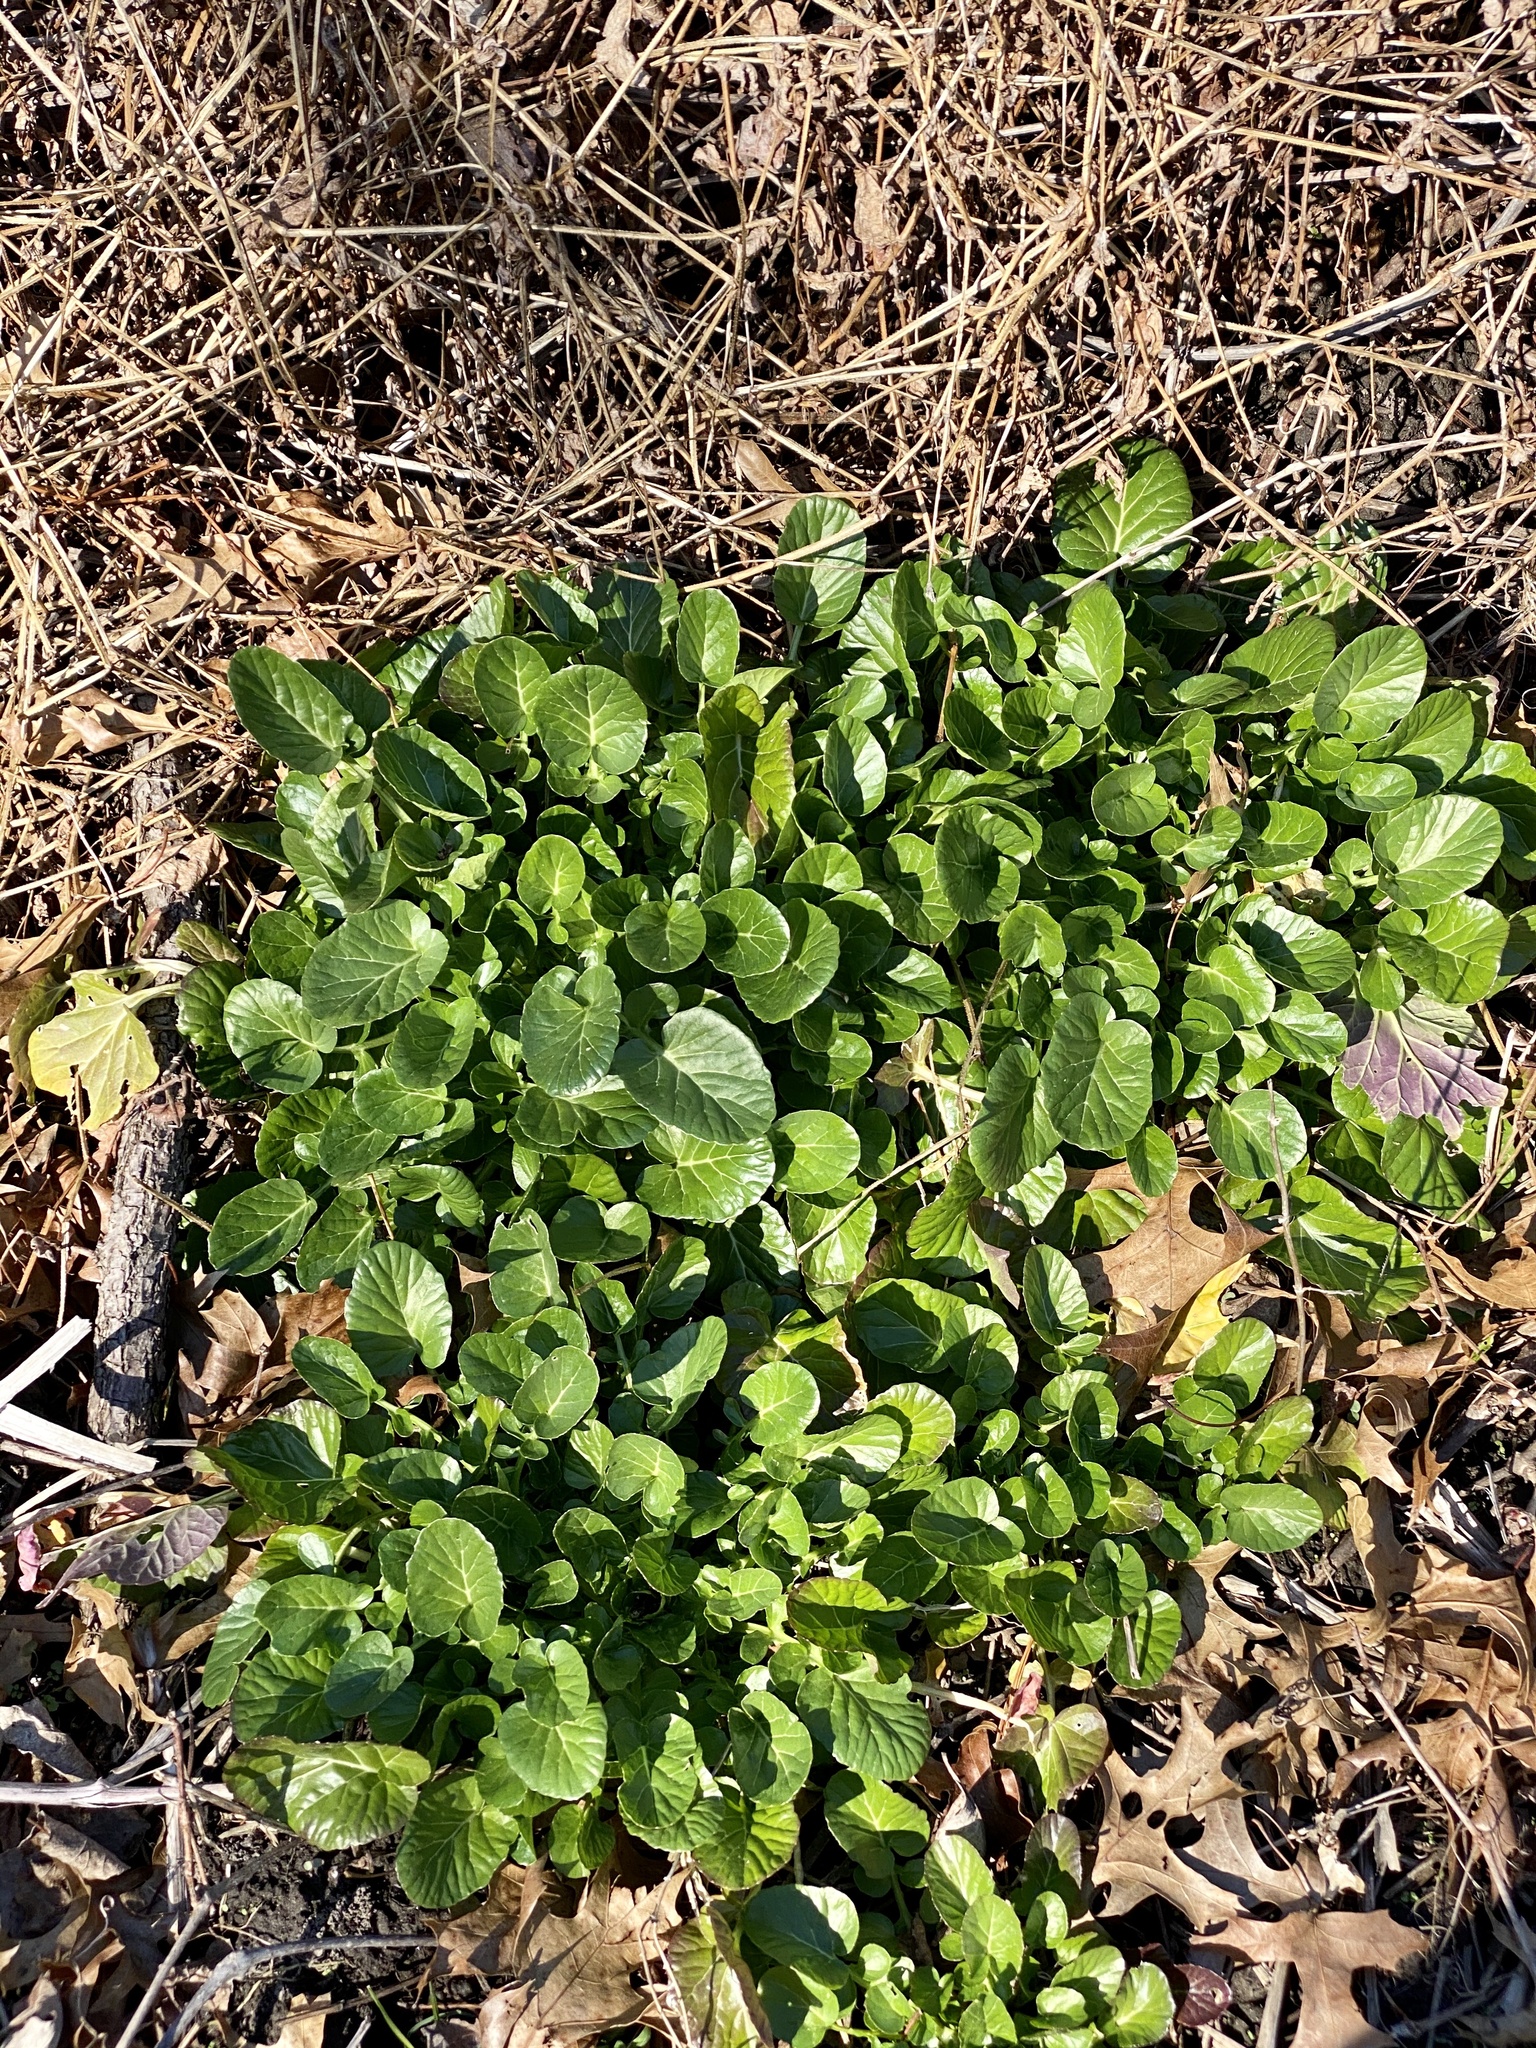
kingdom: Plantae
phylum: Tracheophyta
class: Magnoliopsida
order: Brassicales
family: Brassicaceae
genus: Barbarea
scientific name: Barbarea vulgaris
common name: Cressy-greens
